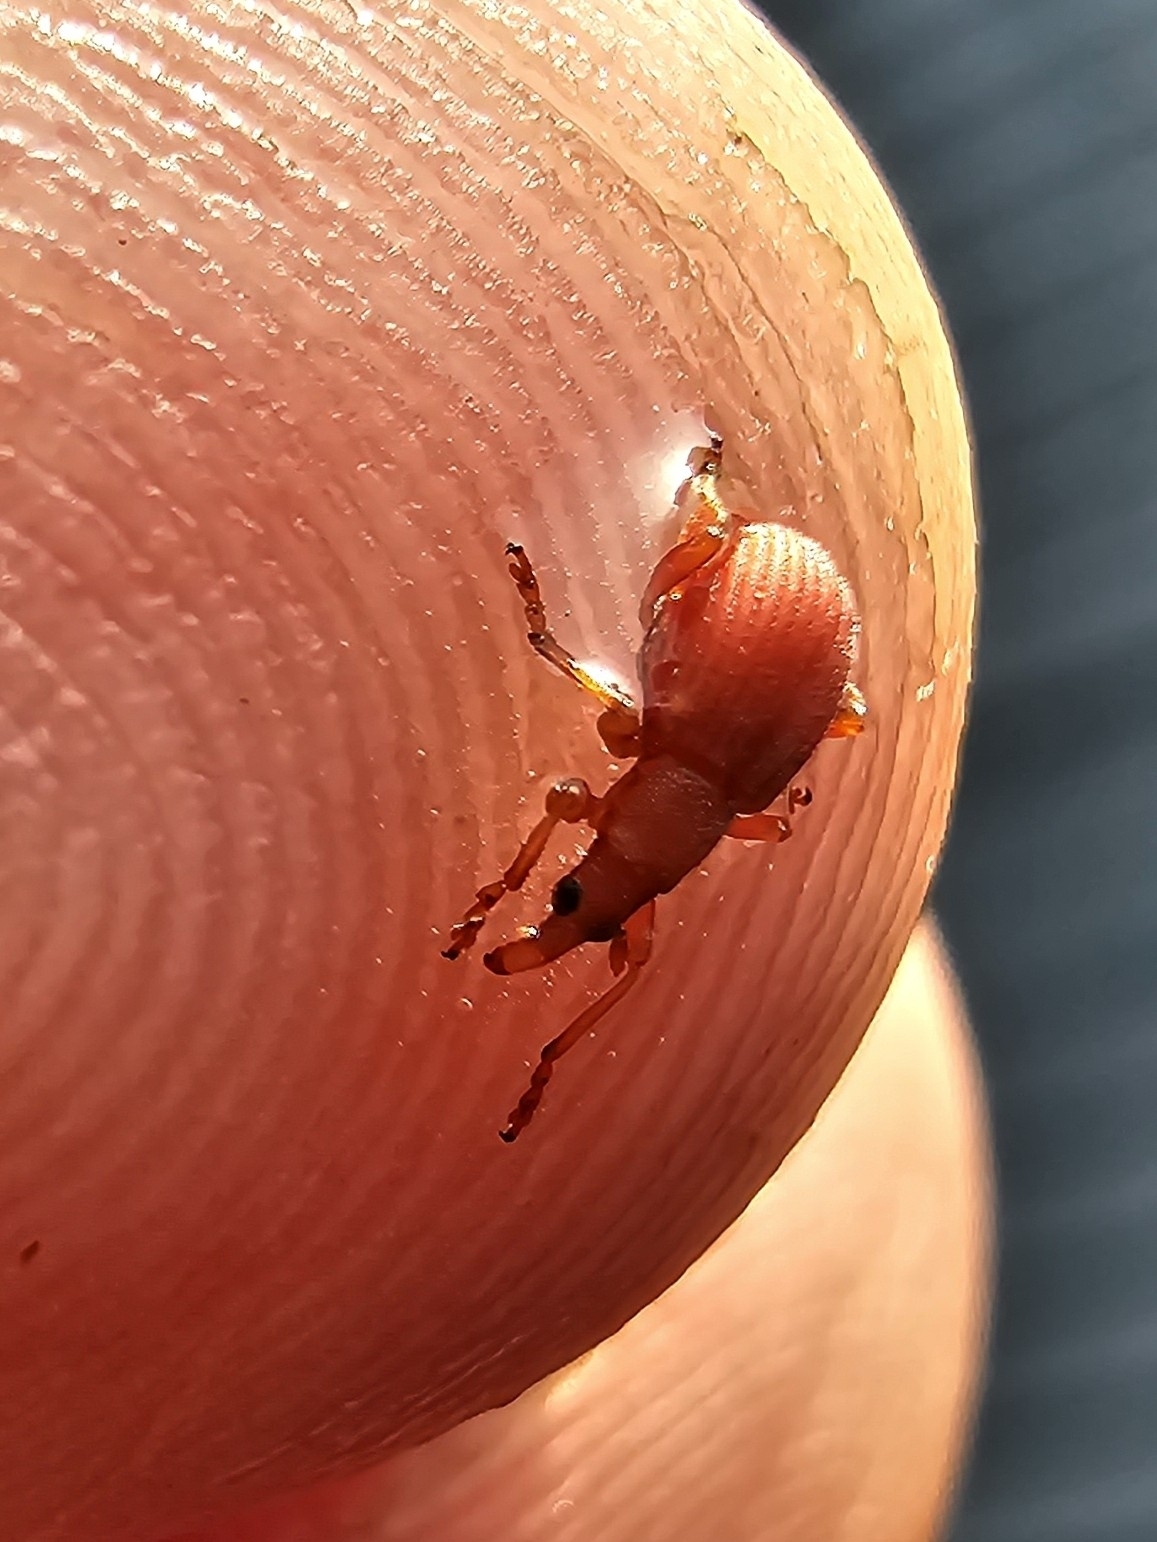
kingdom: Animalia
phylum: Arthropoda
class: Insecta
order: Coleoptera
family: Apionidae
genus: Apion
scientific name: Apion frumentarium
